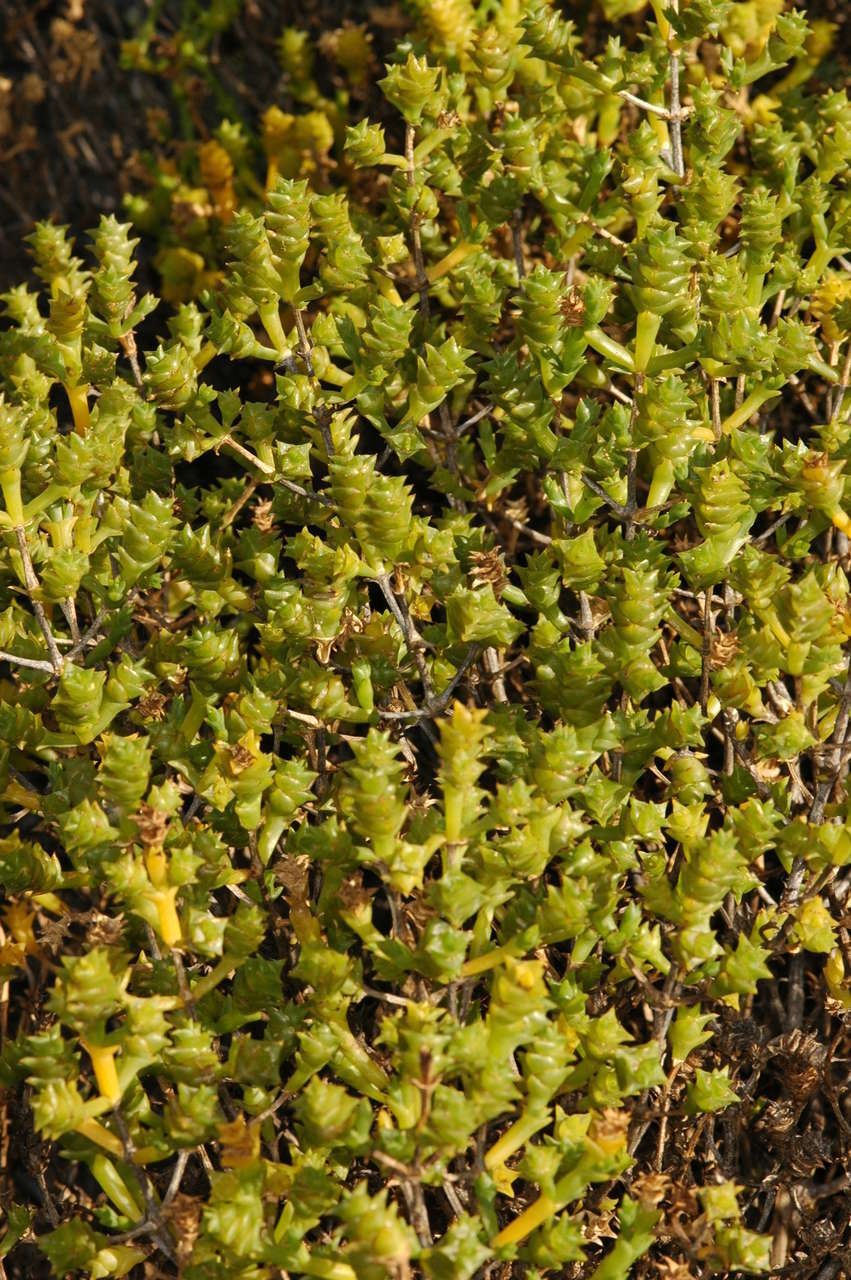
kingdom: Plantae
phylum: Tracheophyta
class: Magnoliopsida
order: Caryophyllales
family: Amaranthaceae
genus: Tecticornia
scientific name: Tecticornia triandra
